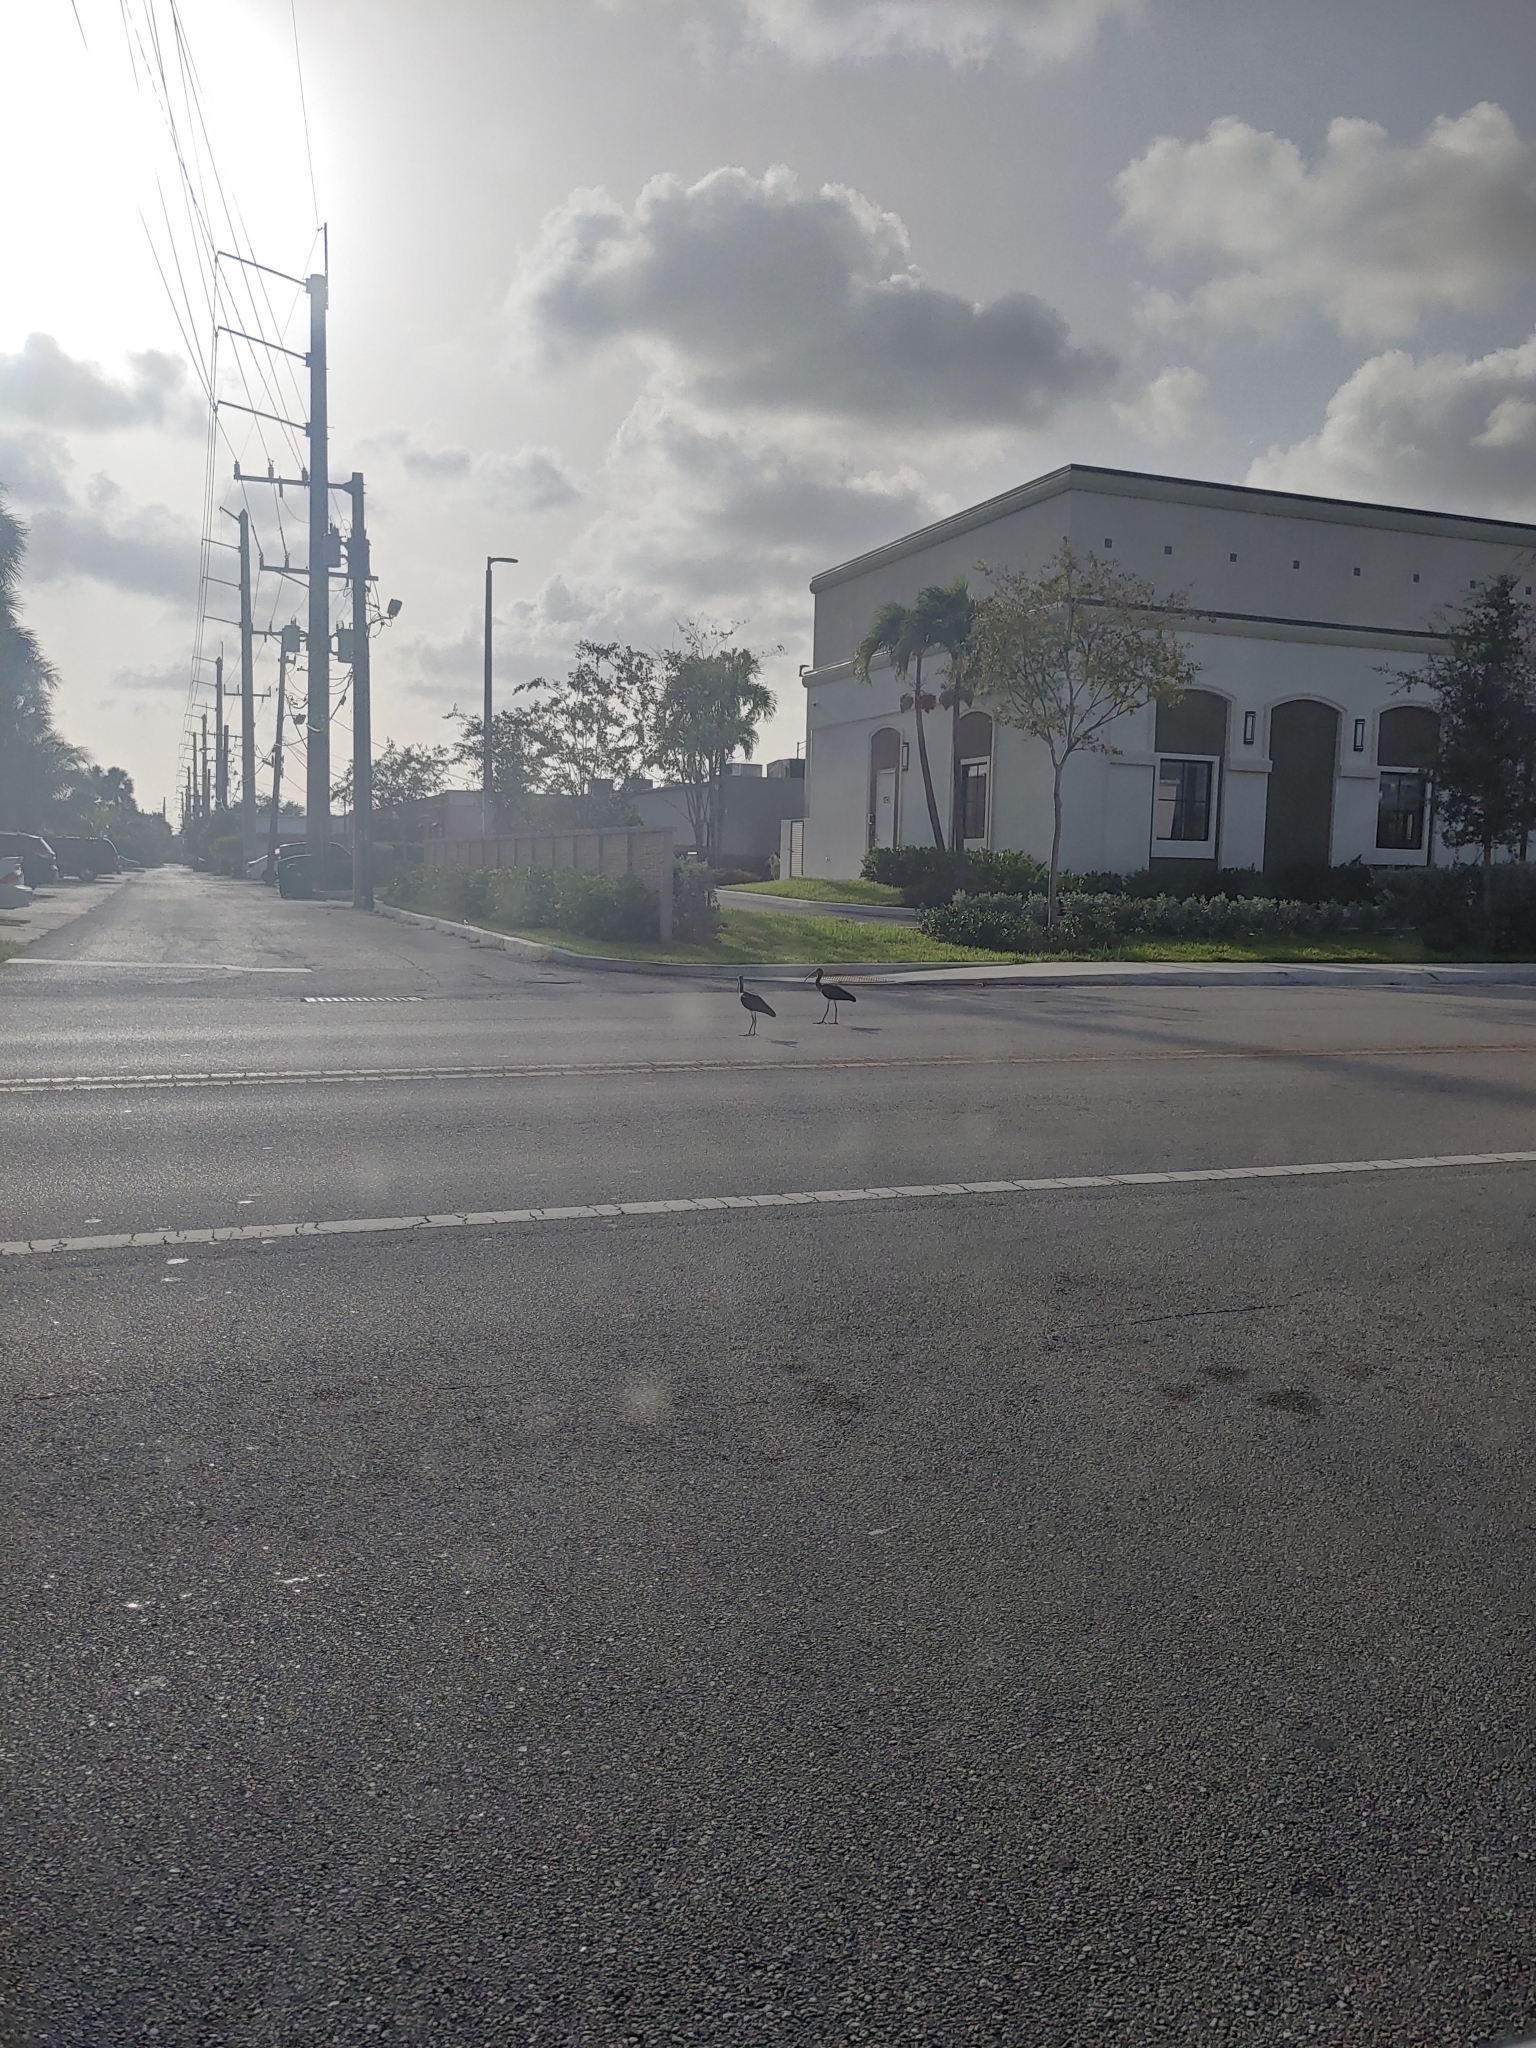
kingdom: Animalia
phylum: Chordata
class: Aves
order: Pelecaniformes
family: Threskiornithidae
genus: Eudocimus
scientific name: Eudocimus albus
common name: White ibis
